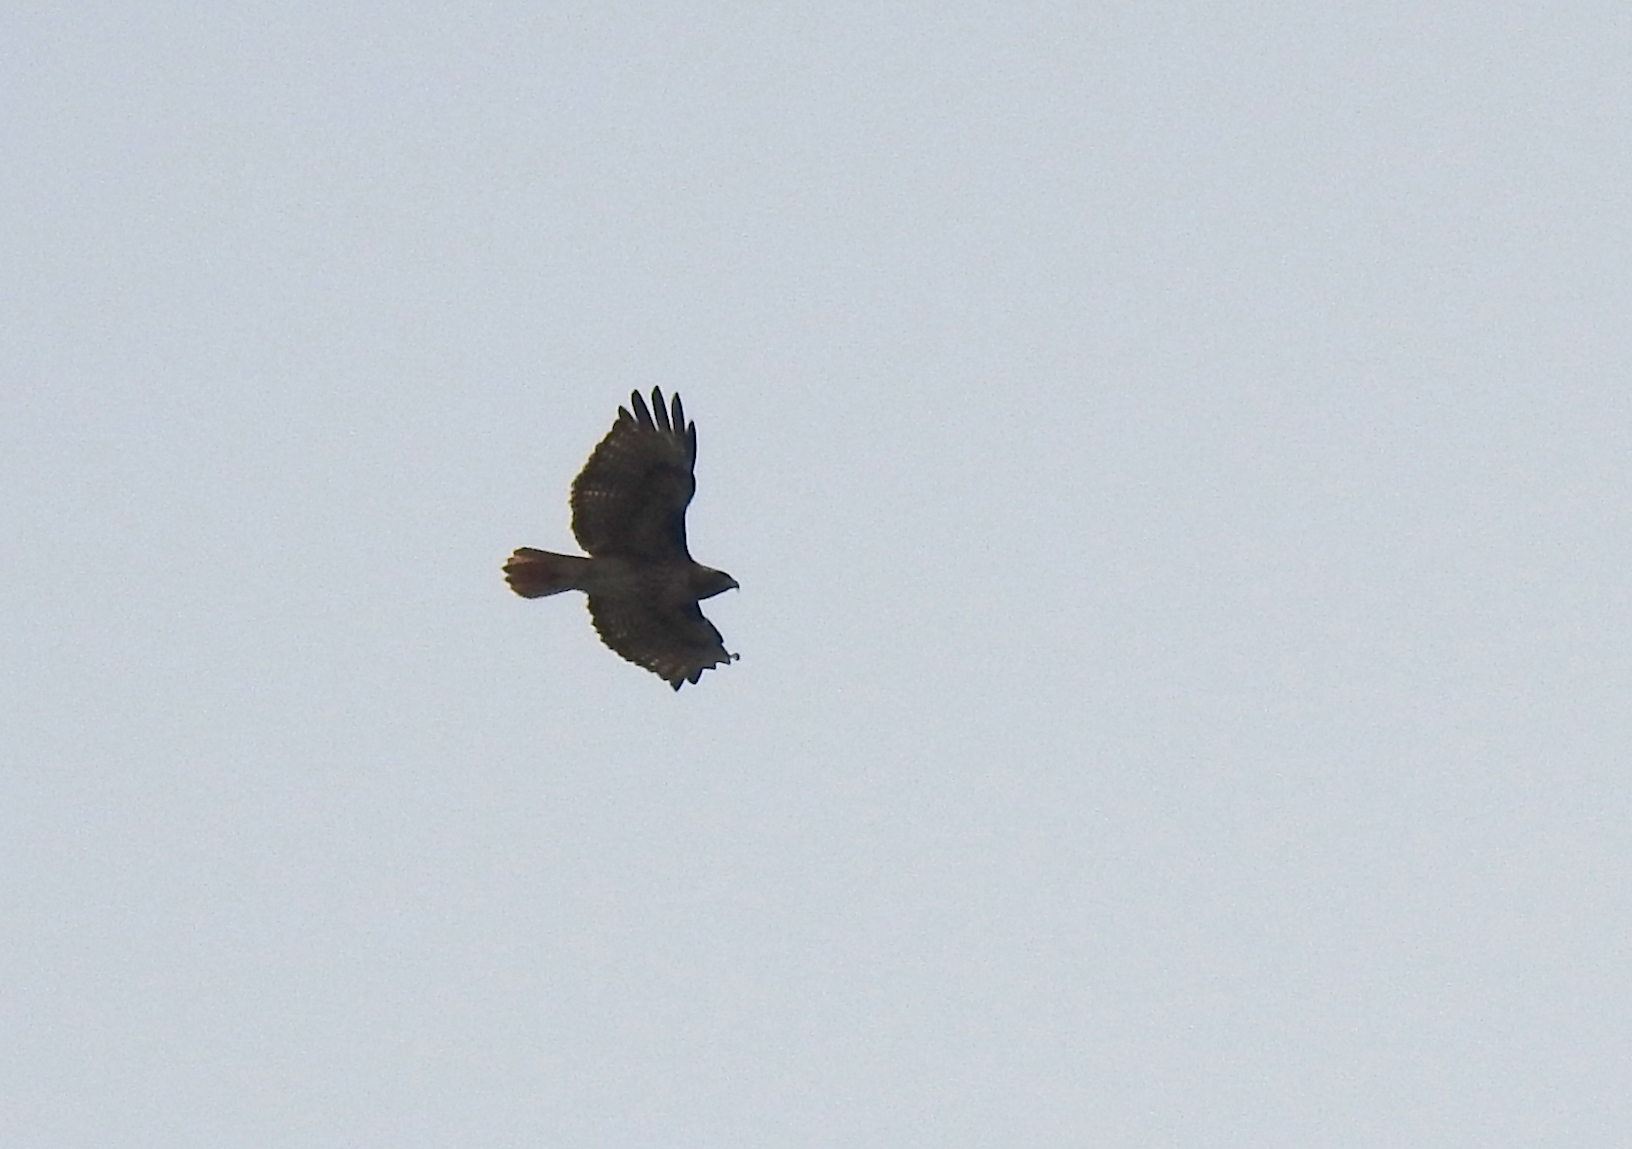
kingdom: Animalia
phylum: Chordata
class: Aves
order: Accipitriformes
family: Accipitridae
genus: Buteo
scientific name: Buteo jamaicensis
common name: Red-tailed hawk
